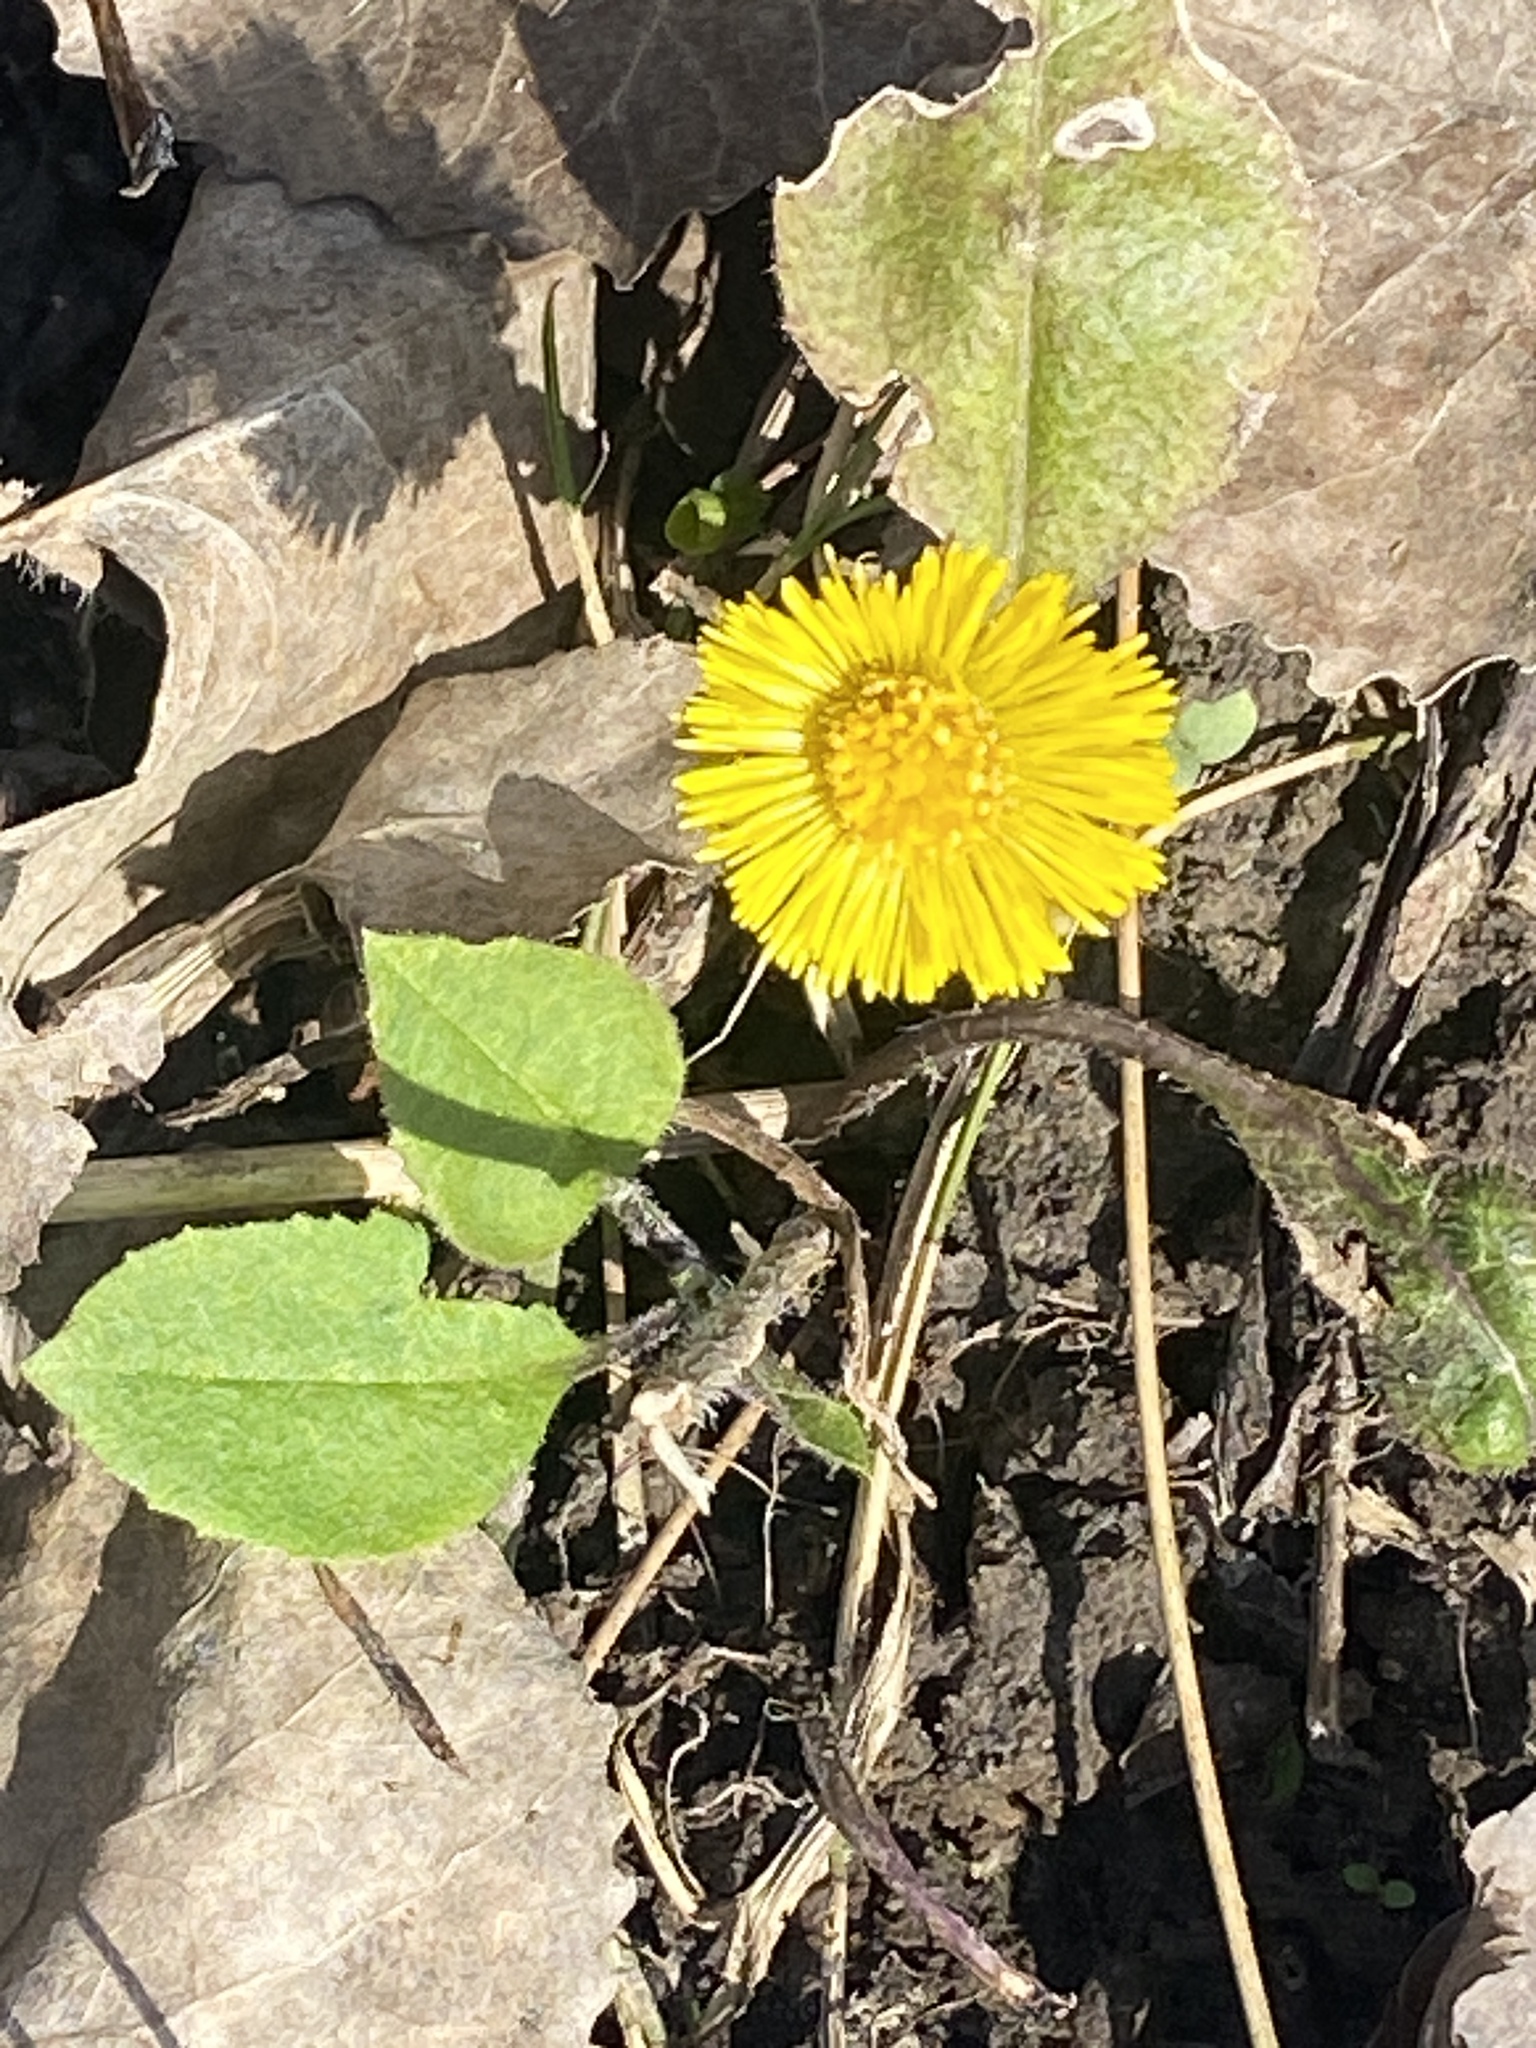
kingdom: Plantae
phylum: Tracheophyta
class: Magnoliopsida
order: Asterales
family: Asteraceae
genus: Tussilago
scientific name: Tussilago farfara
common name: Coltsfoot
